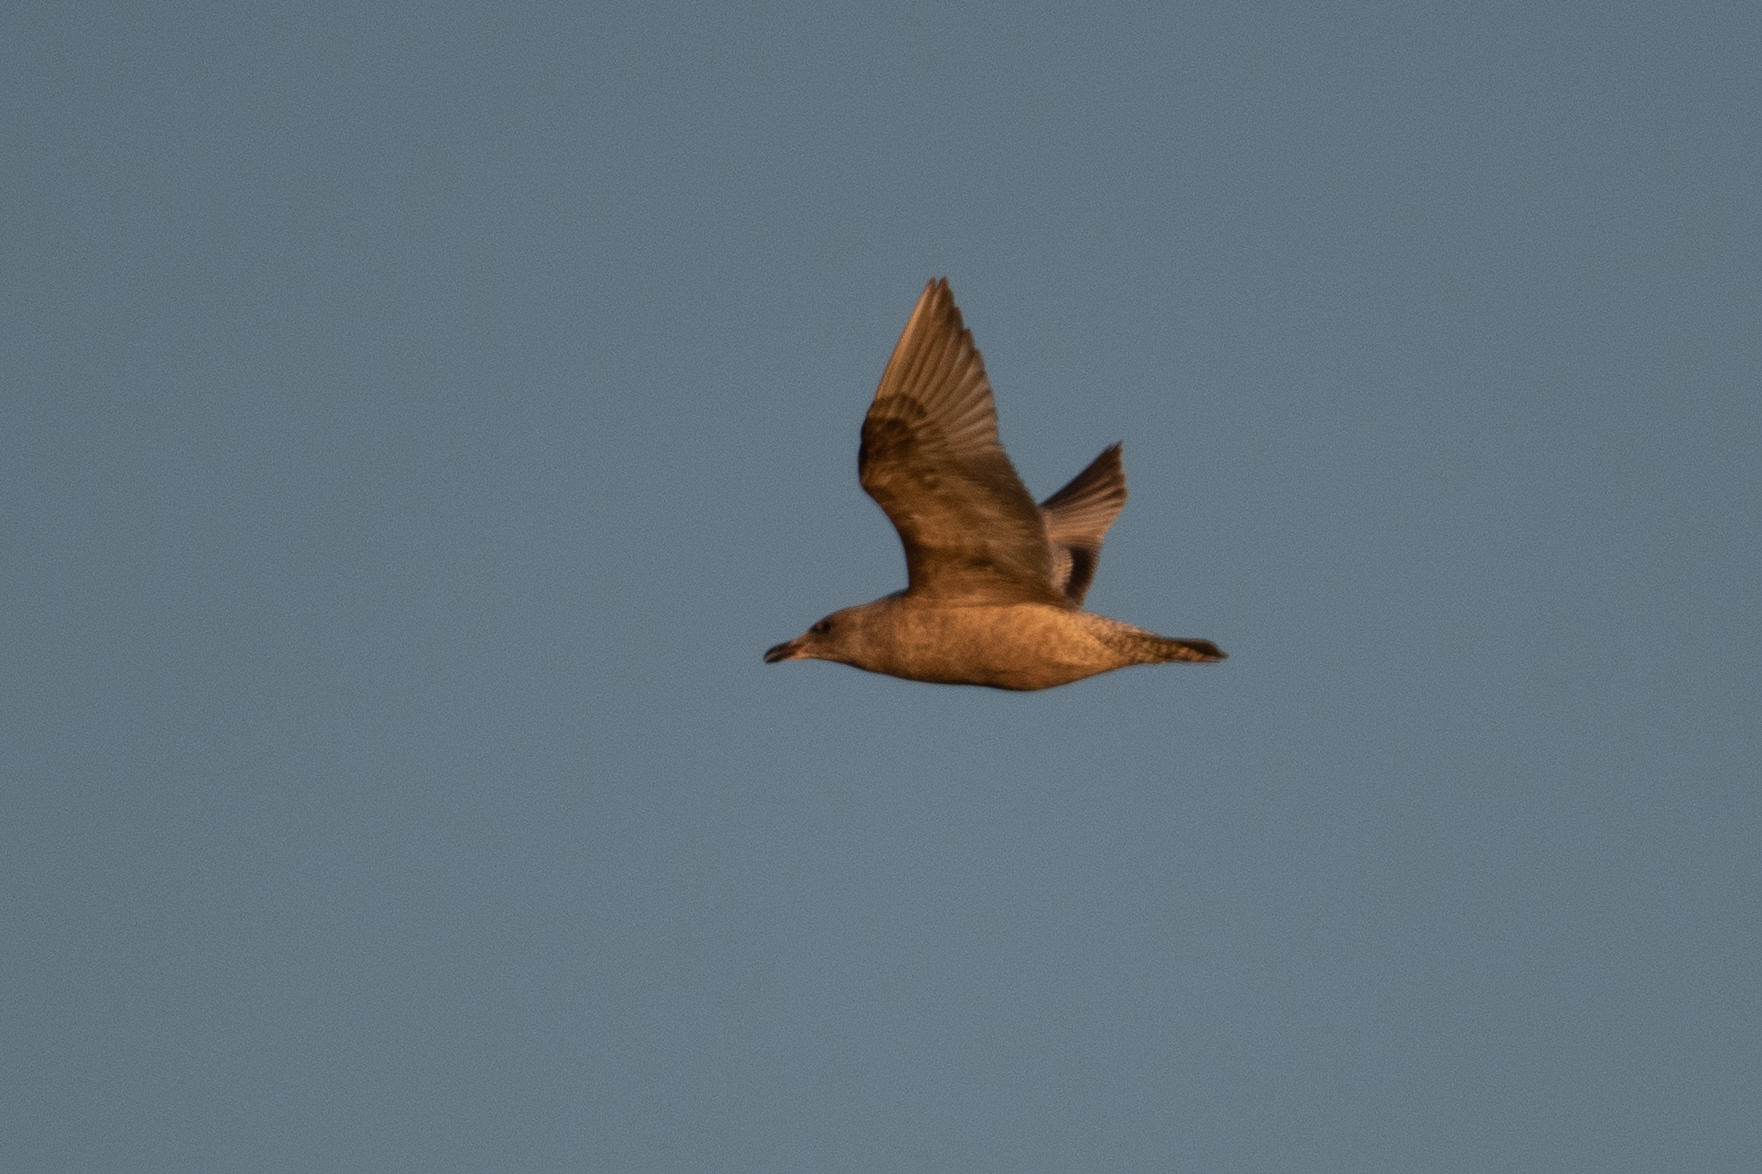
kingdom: Animalia
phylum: Chordata
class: Aves
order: Charadriiformes
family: Laridae
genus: Larus
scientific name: Larus
